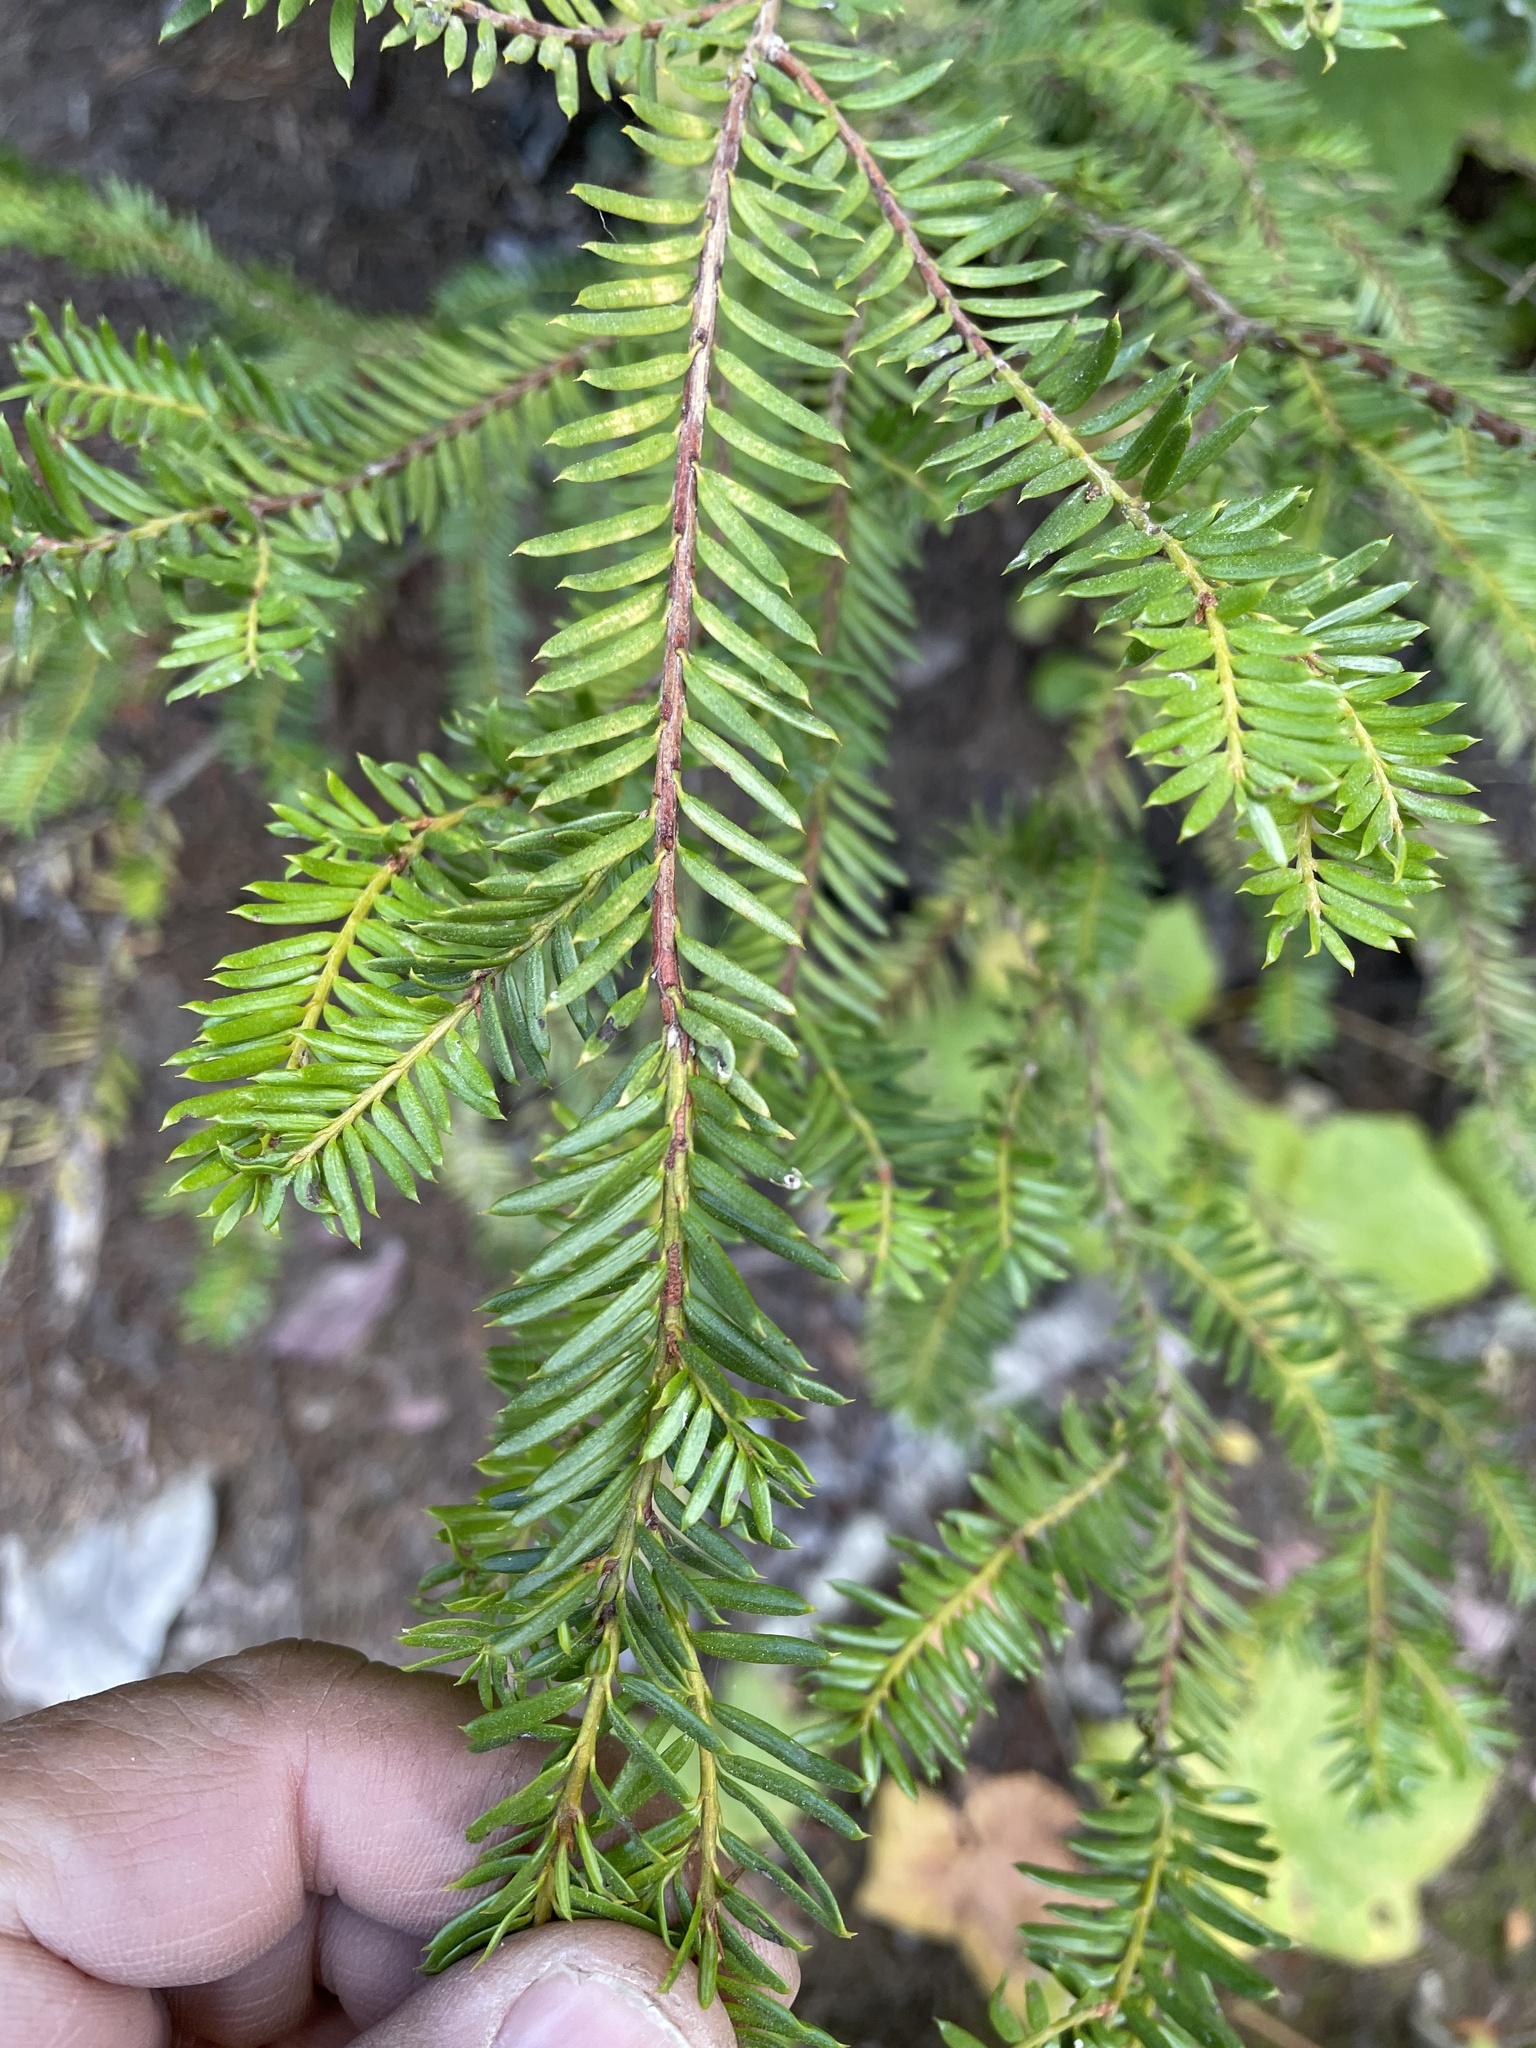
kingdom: Plantae
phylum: Tracheophyta
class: Pinopsida
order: Pinales
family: Taxaceae
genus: Taxus
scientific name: Taxus brevifolia
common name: Pacific yew
